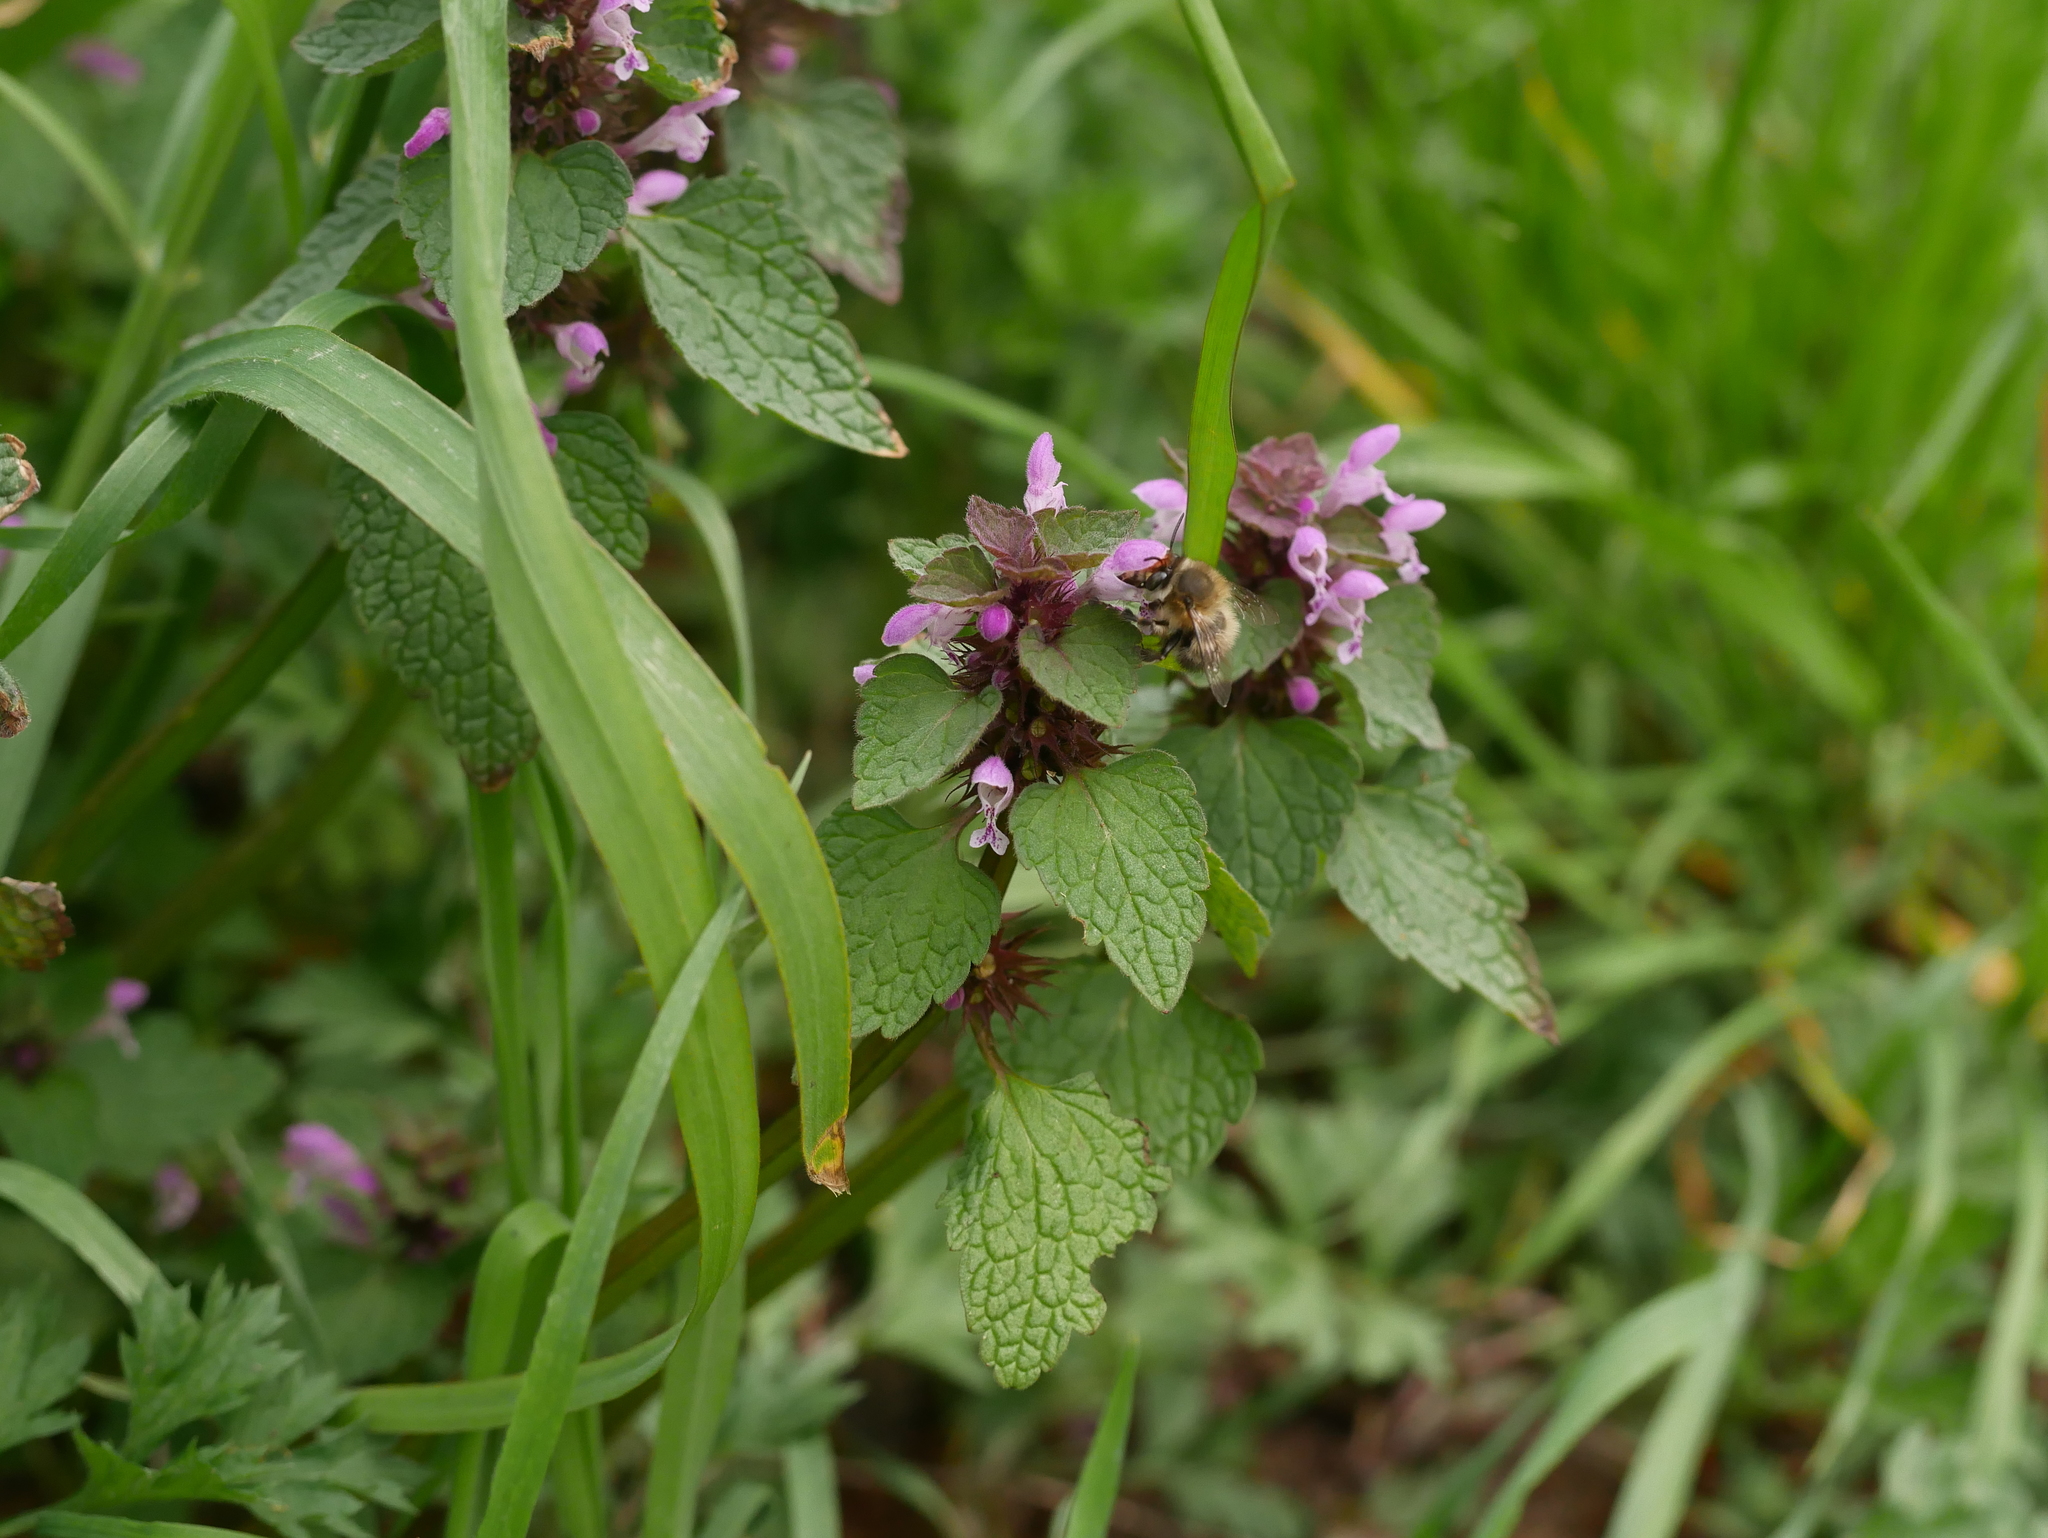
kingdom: Plantae
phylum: Tracheophyta
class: Magnoliopsida
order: Lamiales
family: Lamiaceae
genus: Lamium
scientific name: Lamium purpureum
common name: Red dead-nettle
